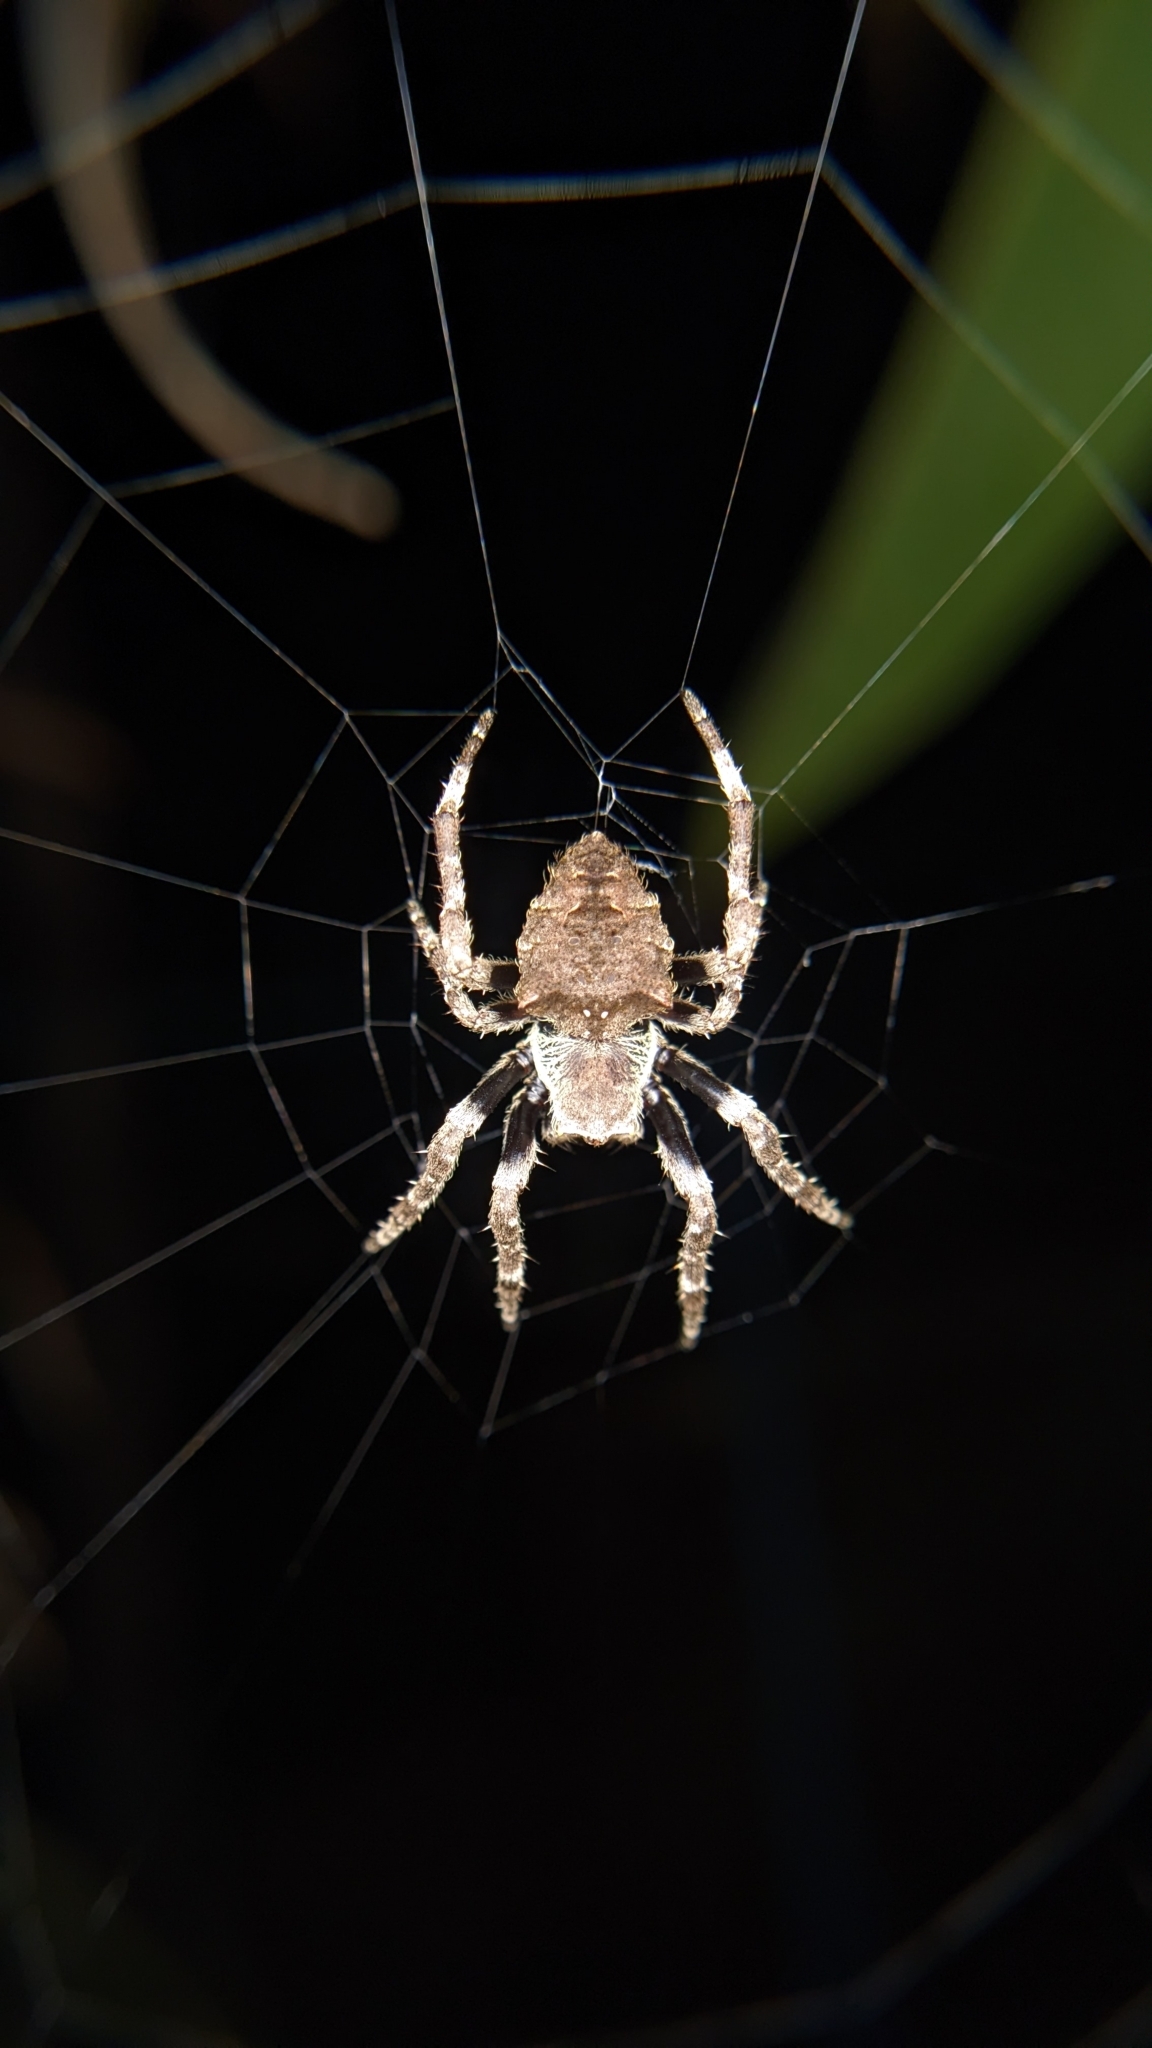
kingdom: Animalia
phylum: Arthropoda
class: Arachnida
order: Araneae
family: Araneidae
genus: Parawixia
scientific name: Parawixia dehaani
